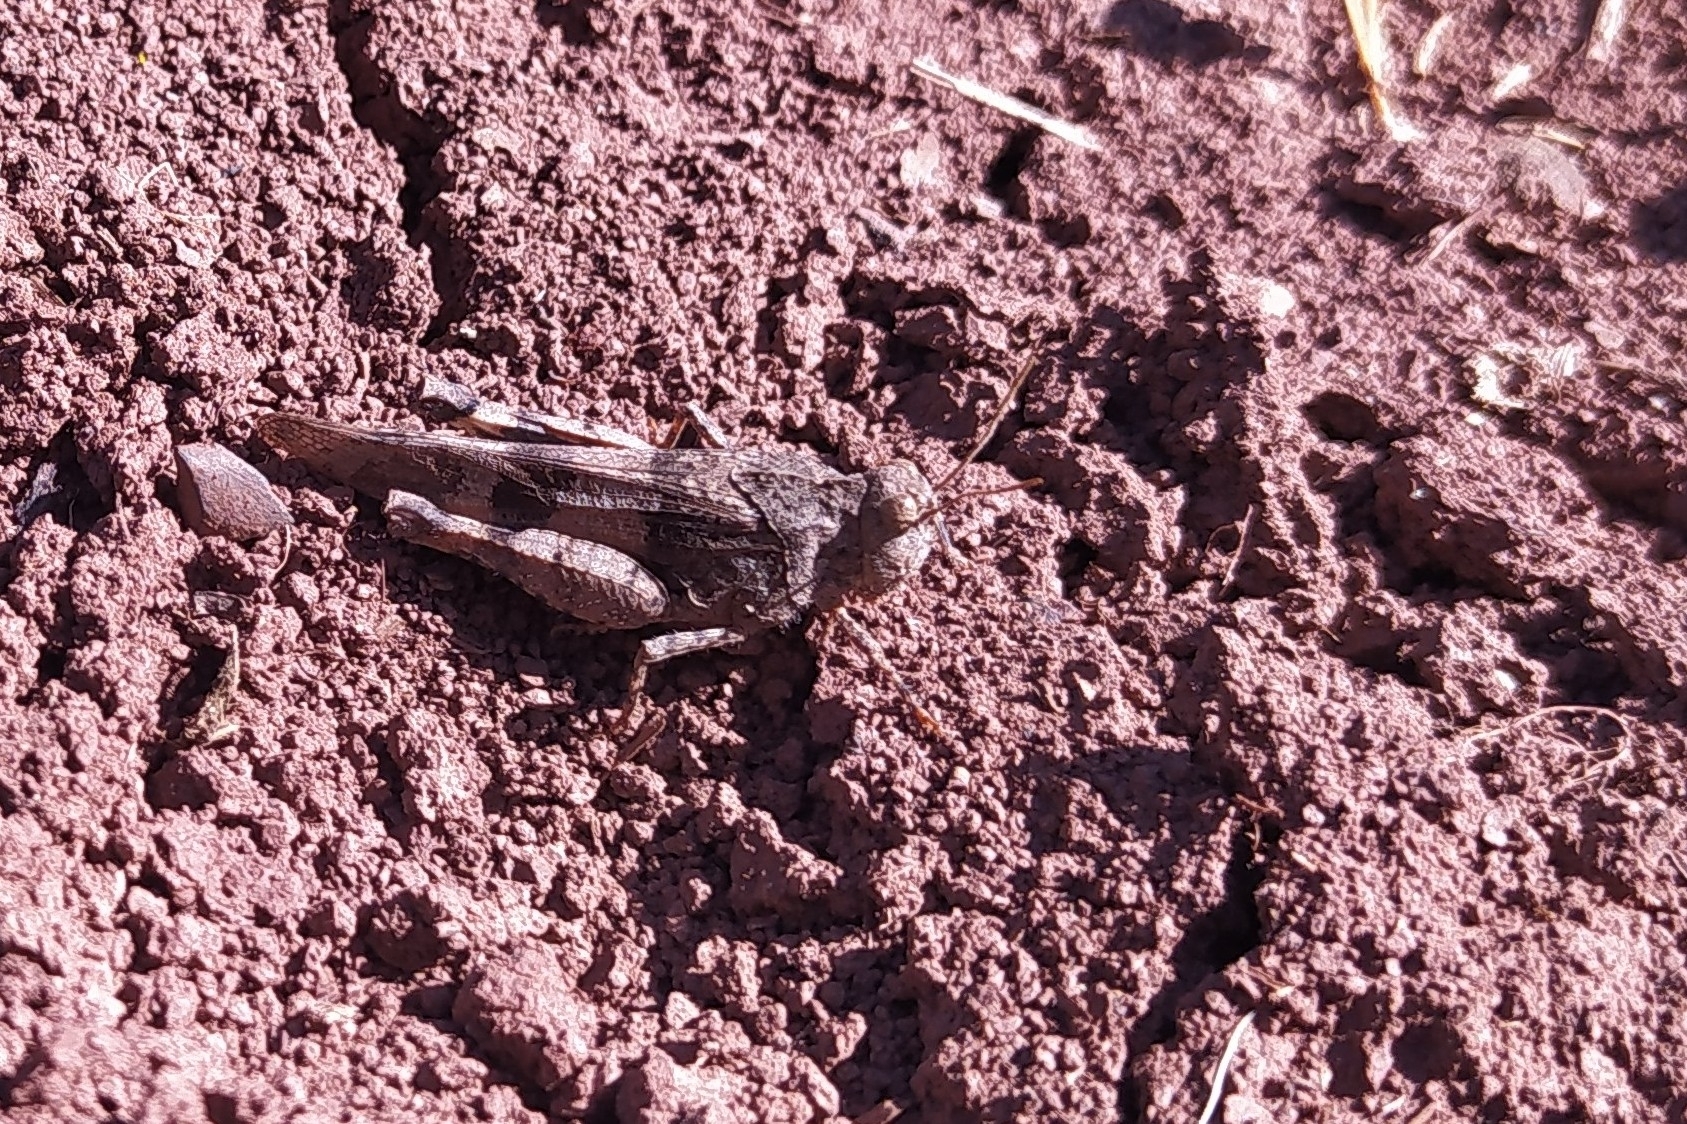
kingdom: Animalia
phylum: Arthropoda
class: Insecta
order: Orthoptera
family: Acrididae
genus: Oedipoda
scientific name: Oedipoda caerulescens
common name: Blue-winged grasshopper
